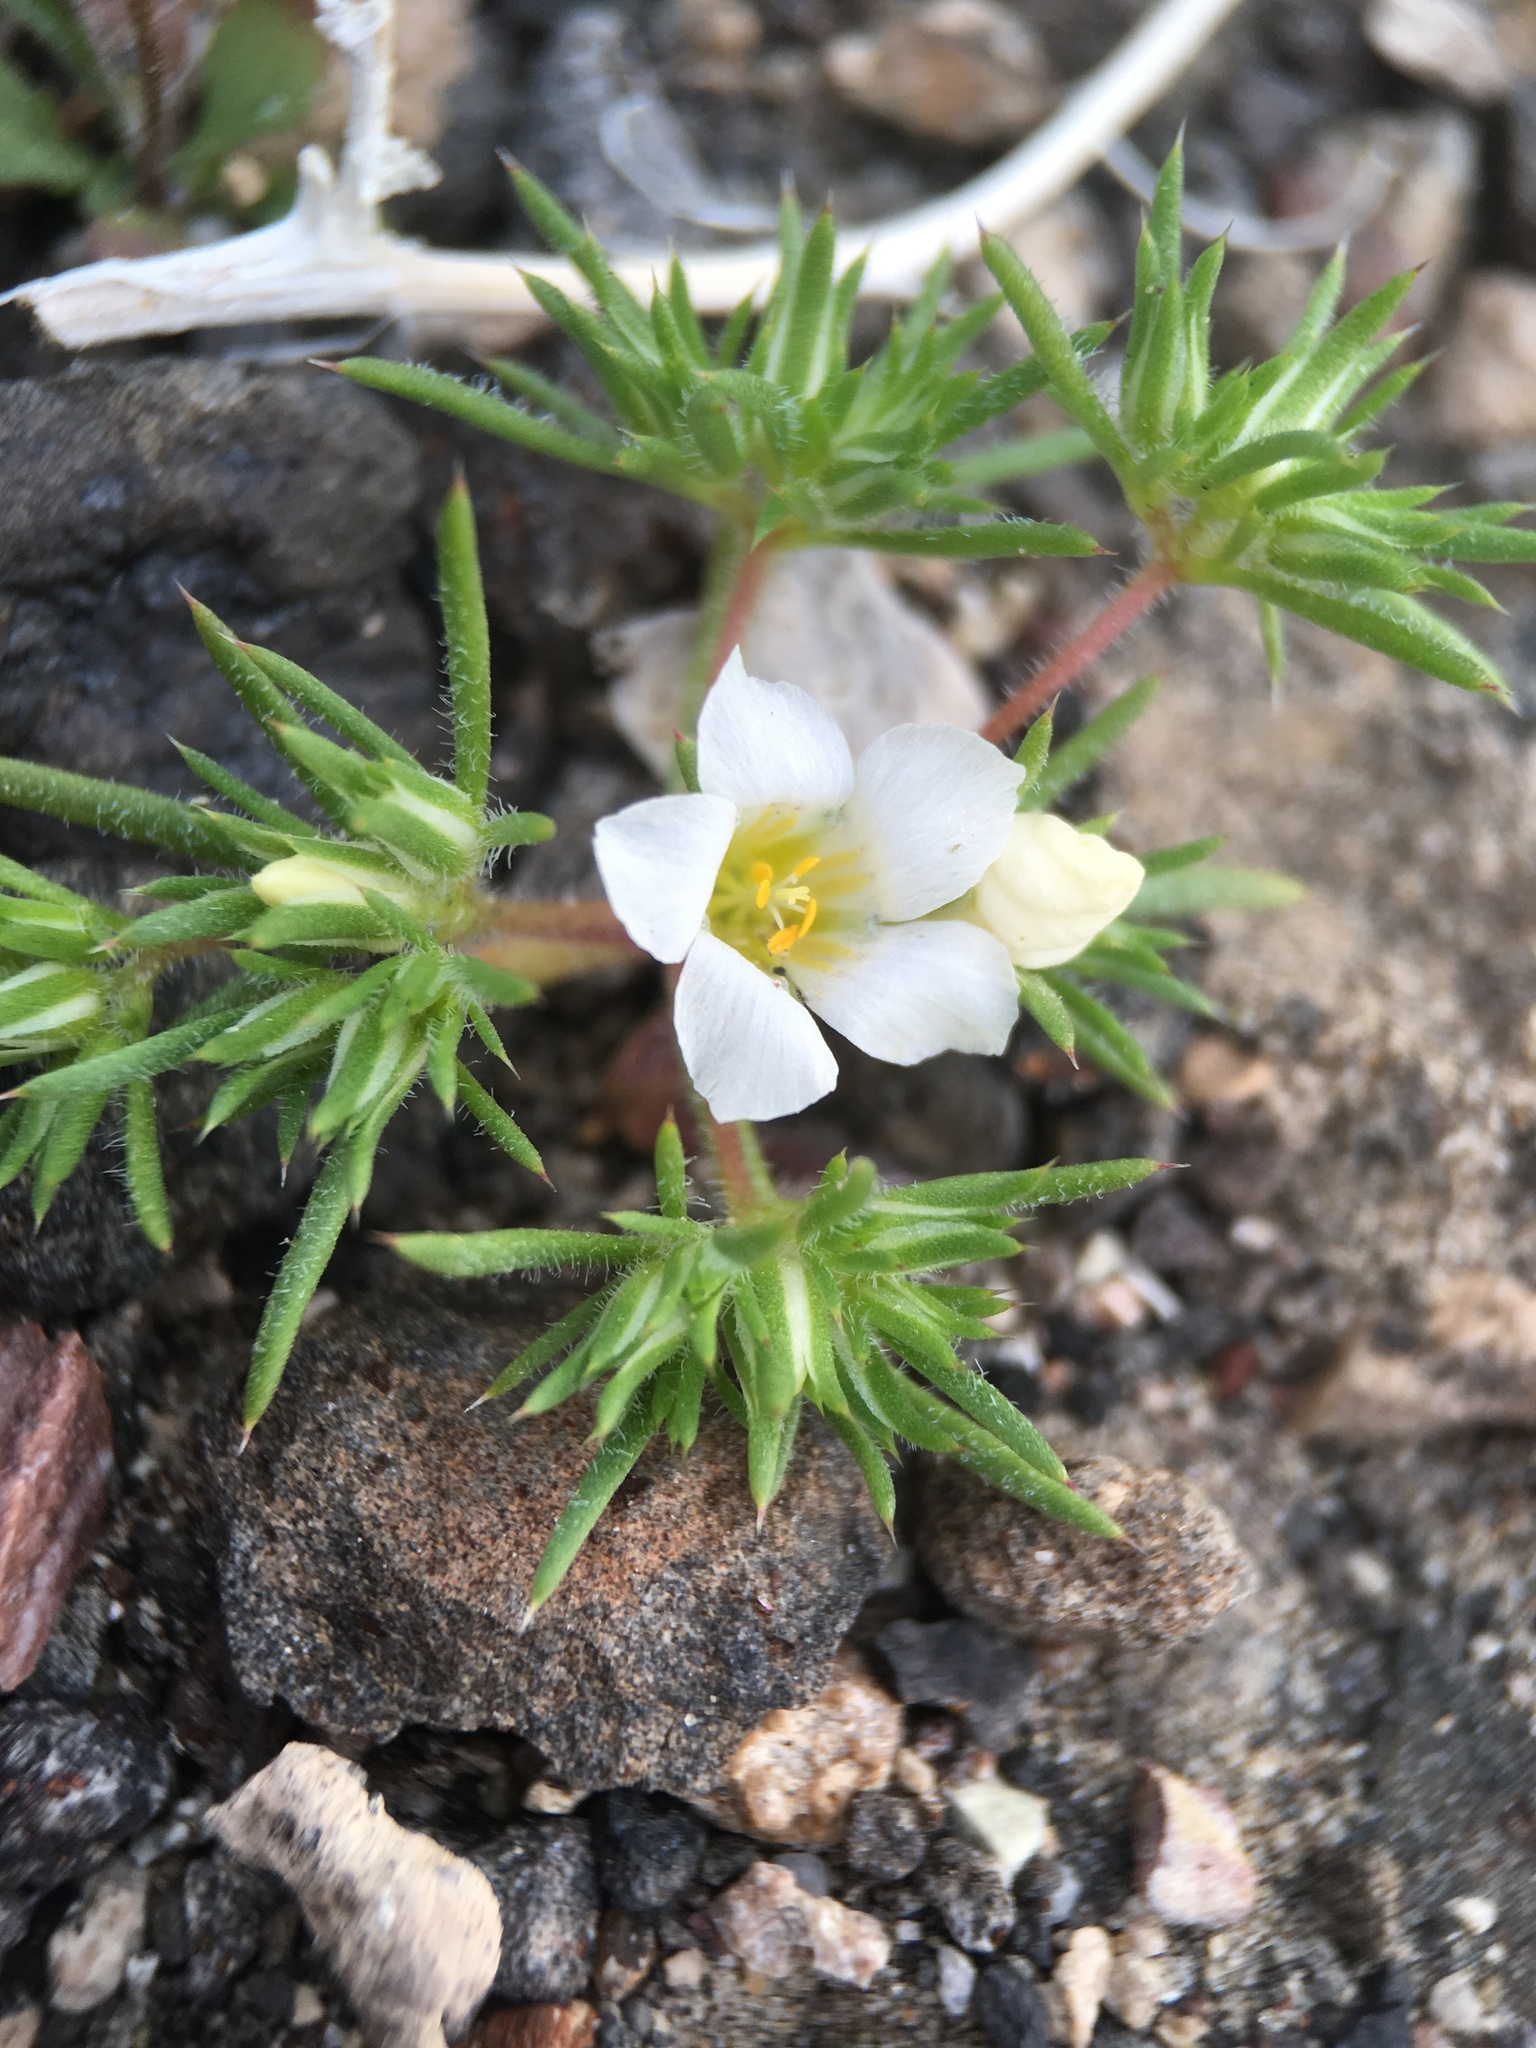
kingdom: Plantae
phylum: Tracheophyta
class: Magnoliopsida
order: Ericales
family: Polemoniaceae
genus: Linanthus
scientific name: Linanthus demissus
